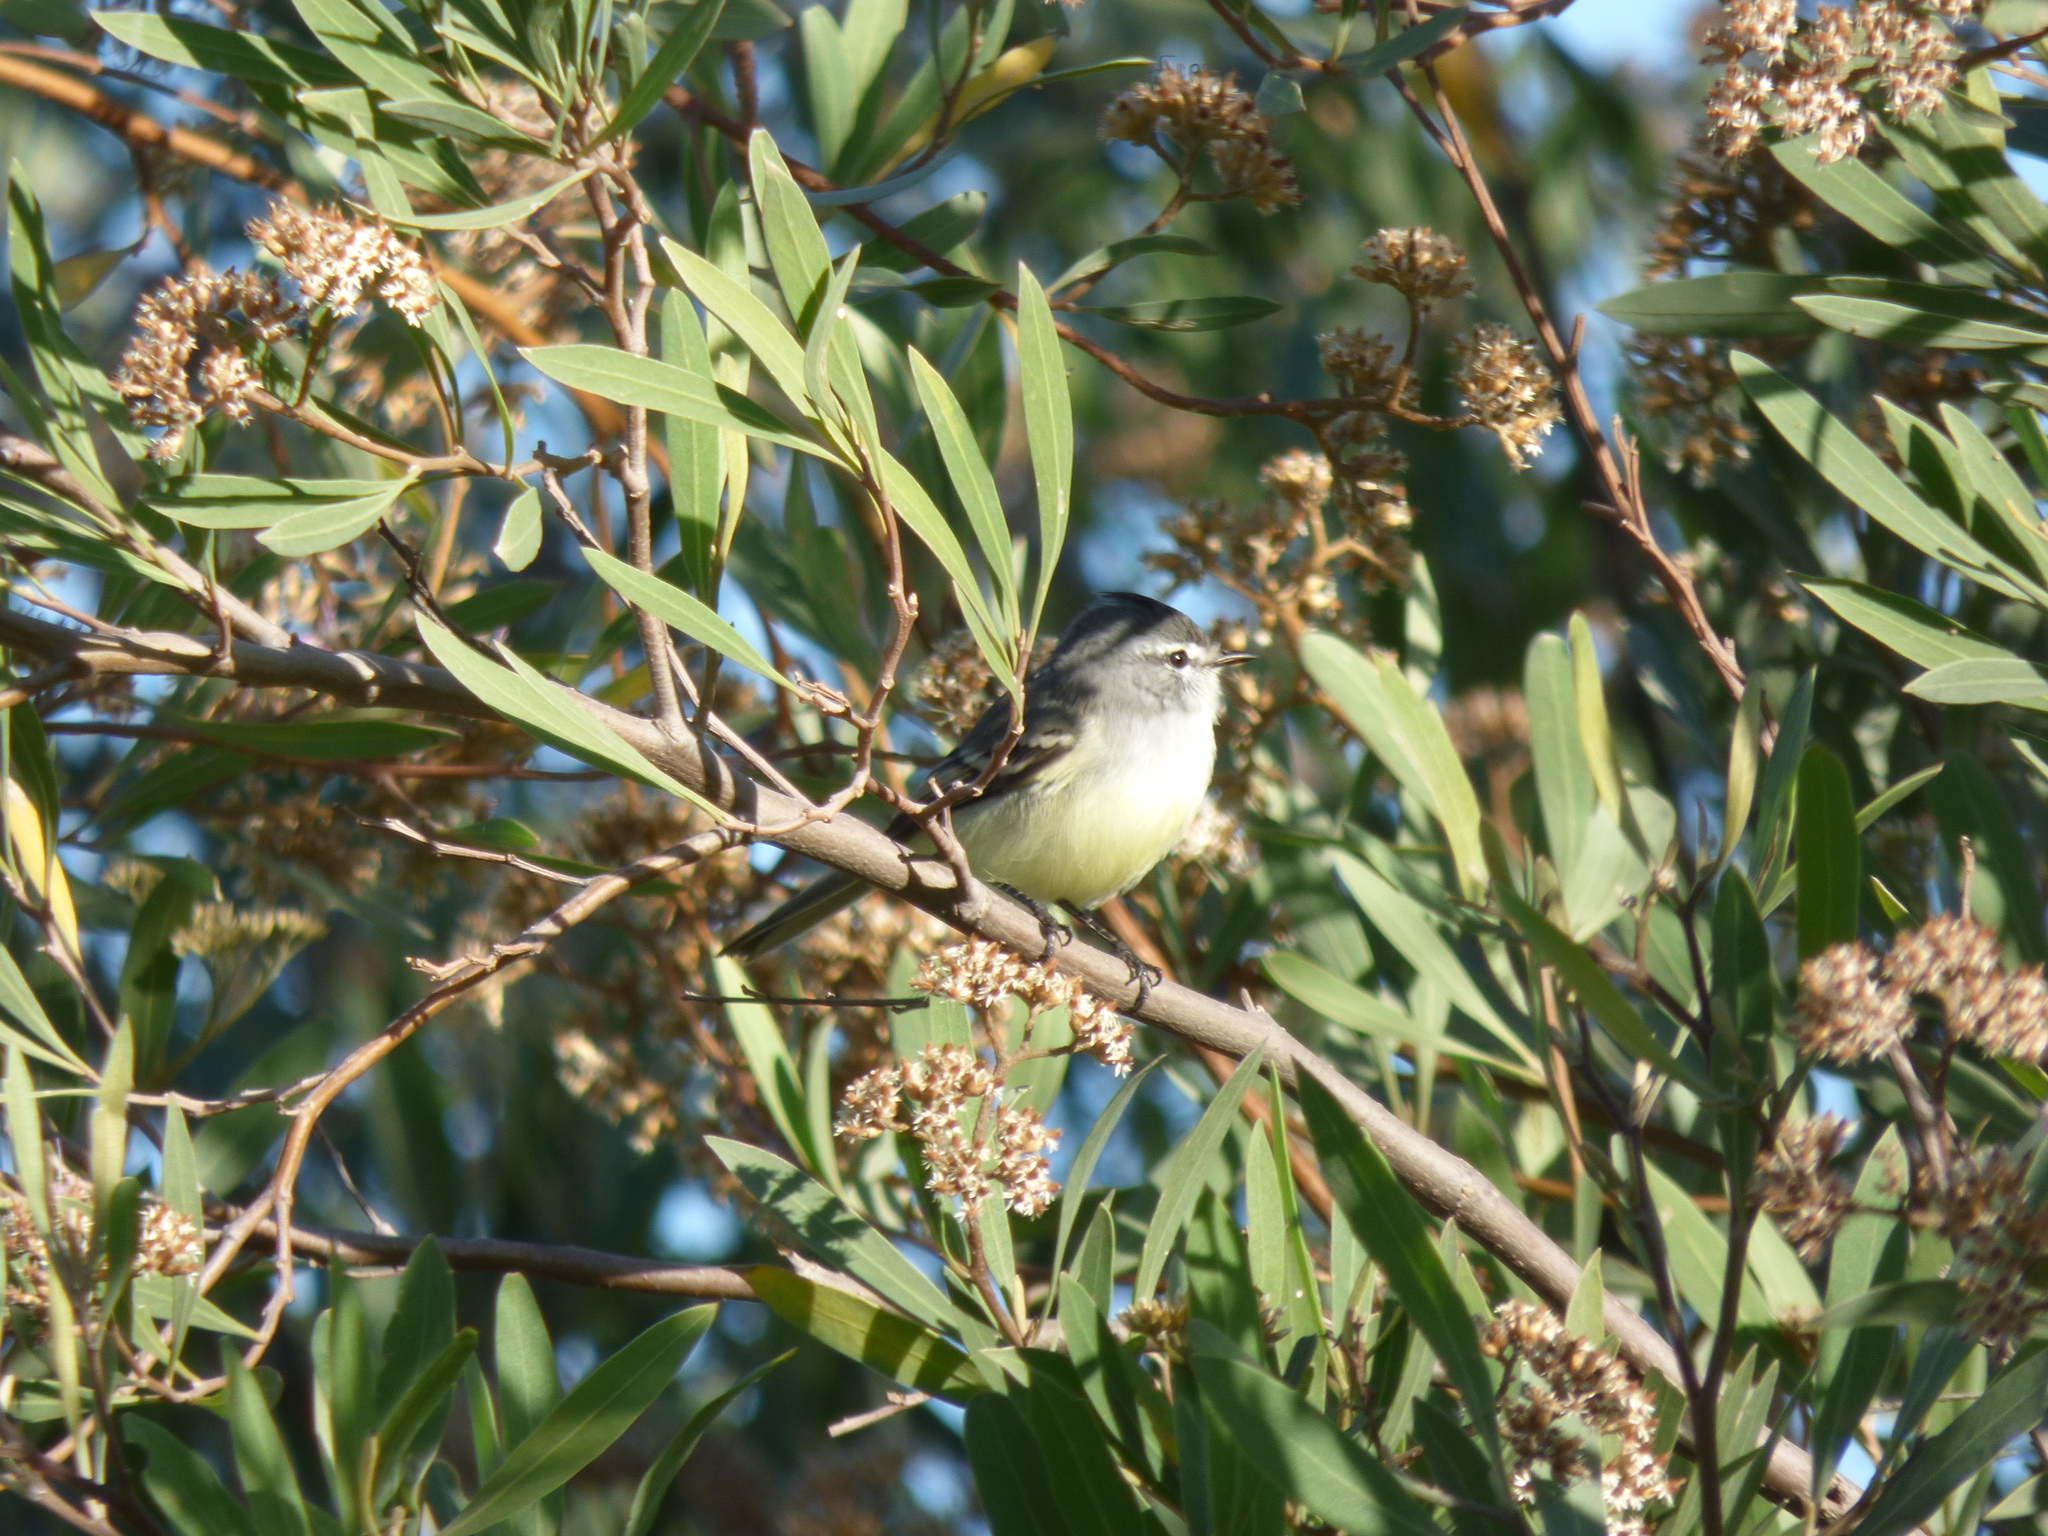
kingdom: Animalia
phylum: Chordata
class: Aves
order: Passeriformes
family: Tyrannidae
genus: Serpophaga
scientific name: Serpophaga subcristata
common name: White-crested tyrannulet
